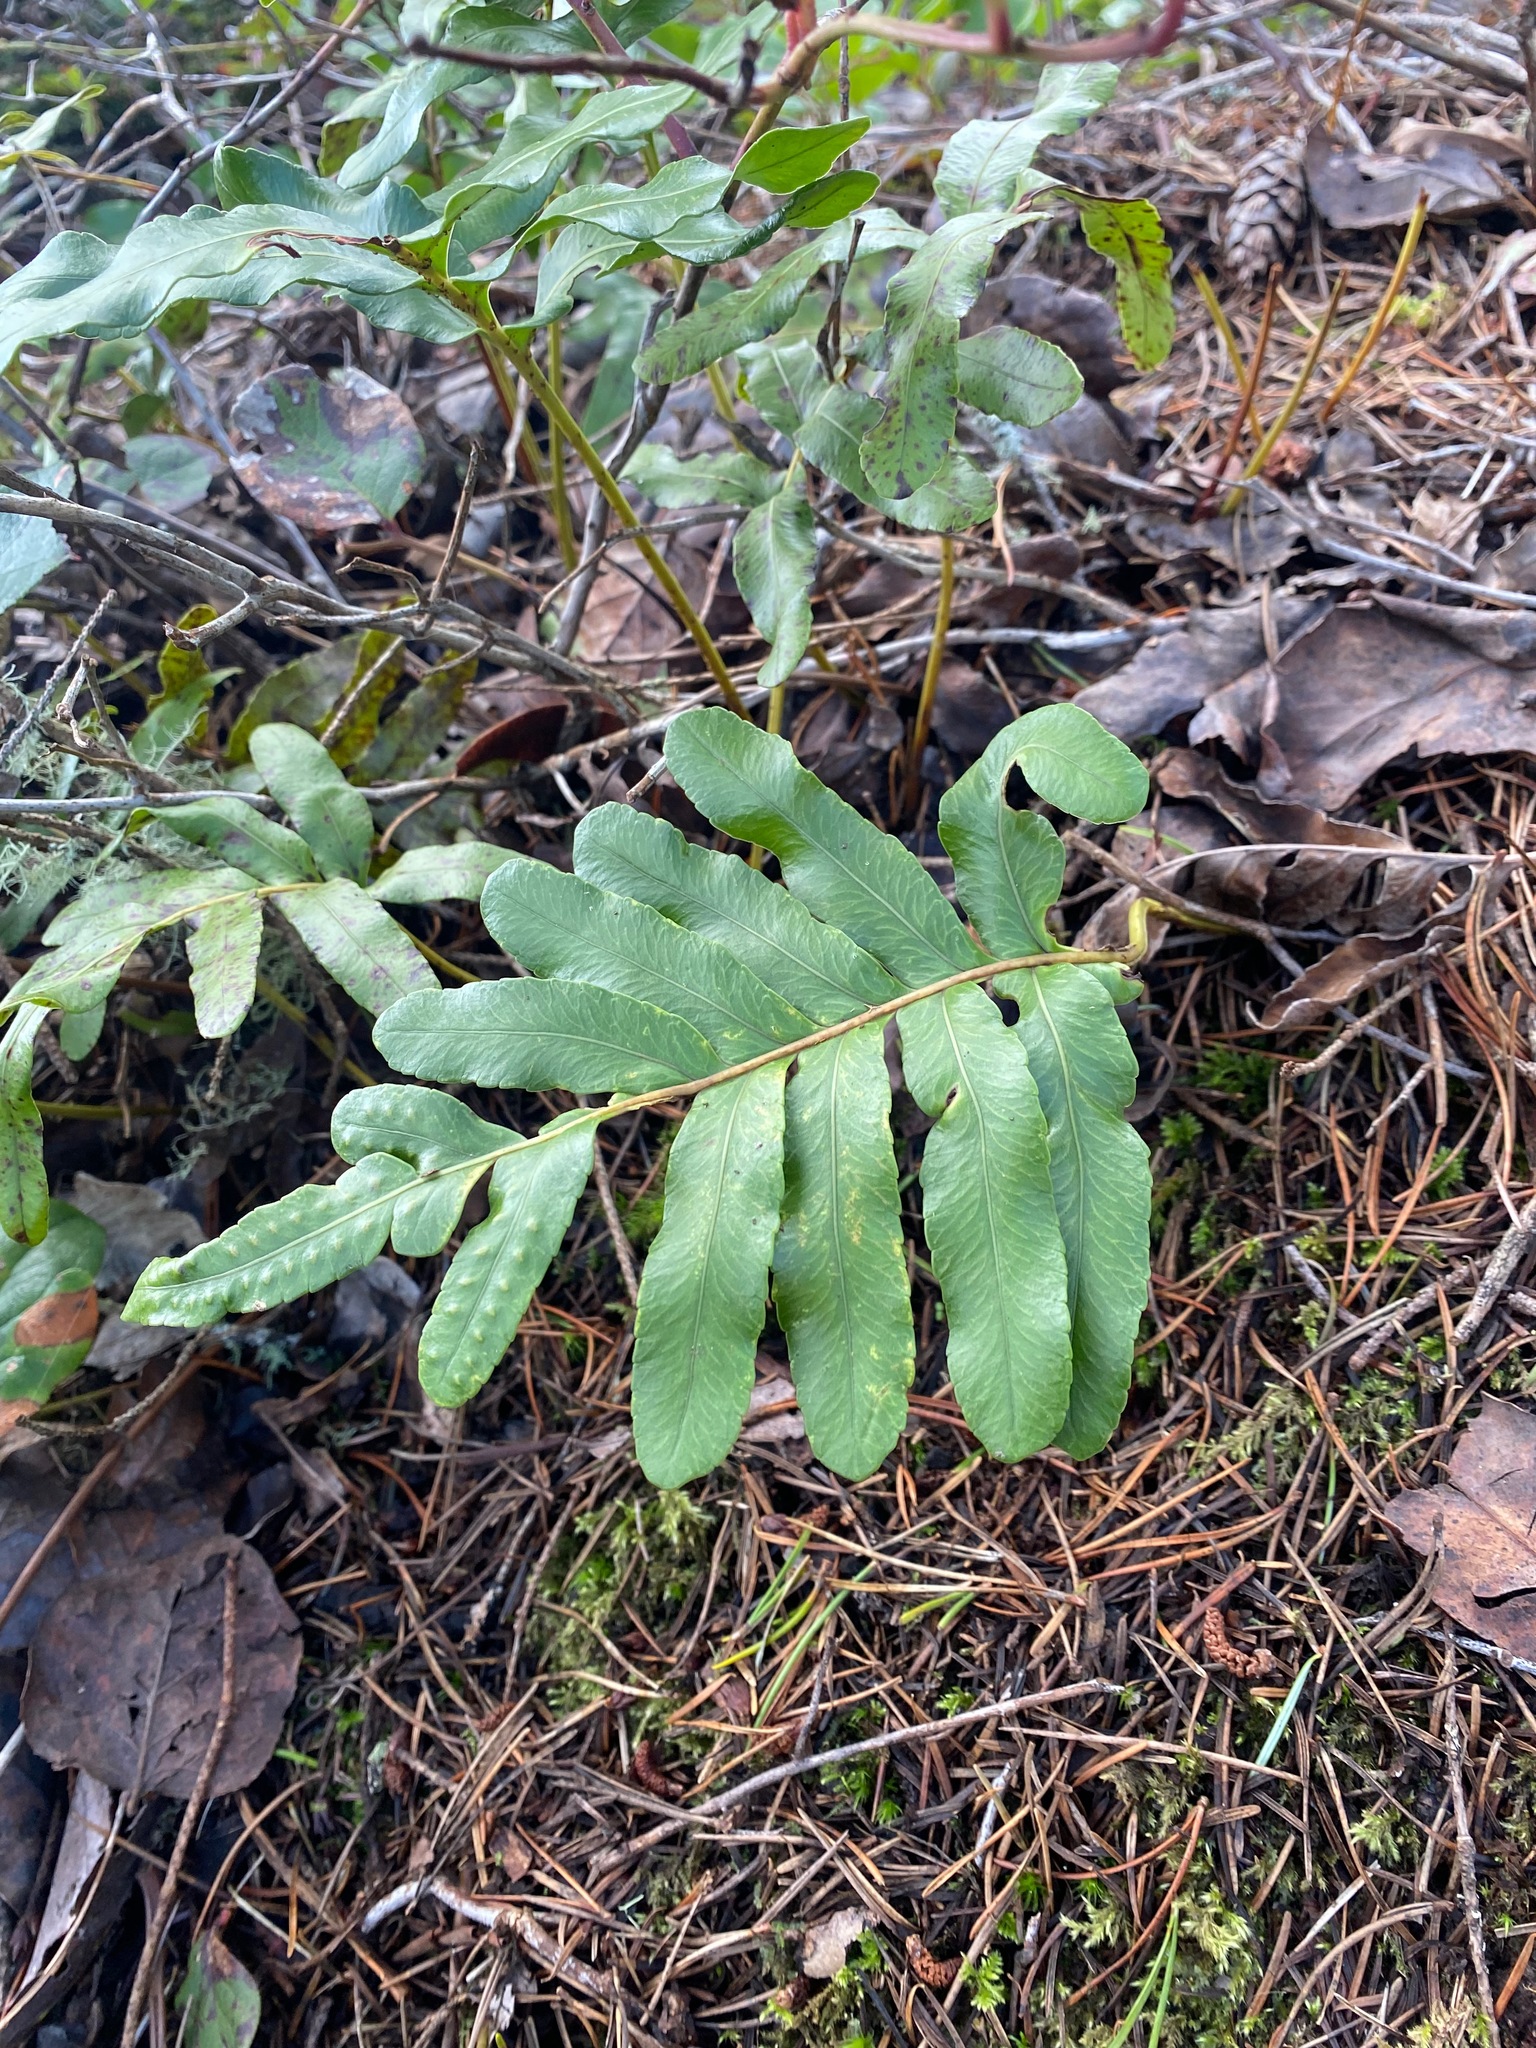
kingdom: Plantae
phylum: Tracheophyta
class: Polypodiopsida
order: Polypodiales
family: Polypodiaceae
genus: Polypodium
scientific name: Polypodium scouleri
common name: Scouler's polypody
